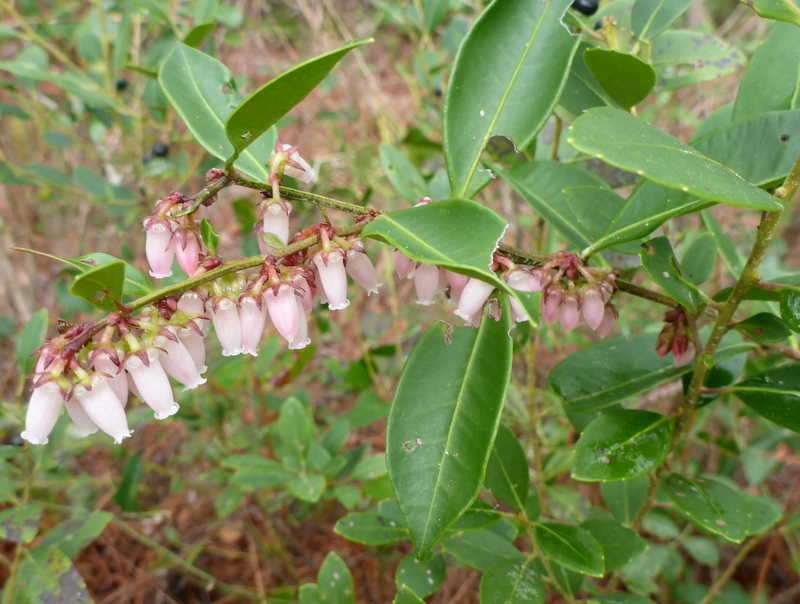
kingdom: Plantae
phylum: Tracheophyta
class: Magnoliopsida
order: Ericales
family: Ericaceae
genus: Lyonia
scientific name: Lyonia lucida
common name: Fetterbush
